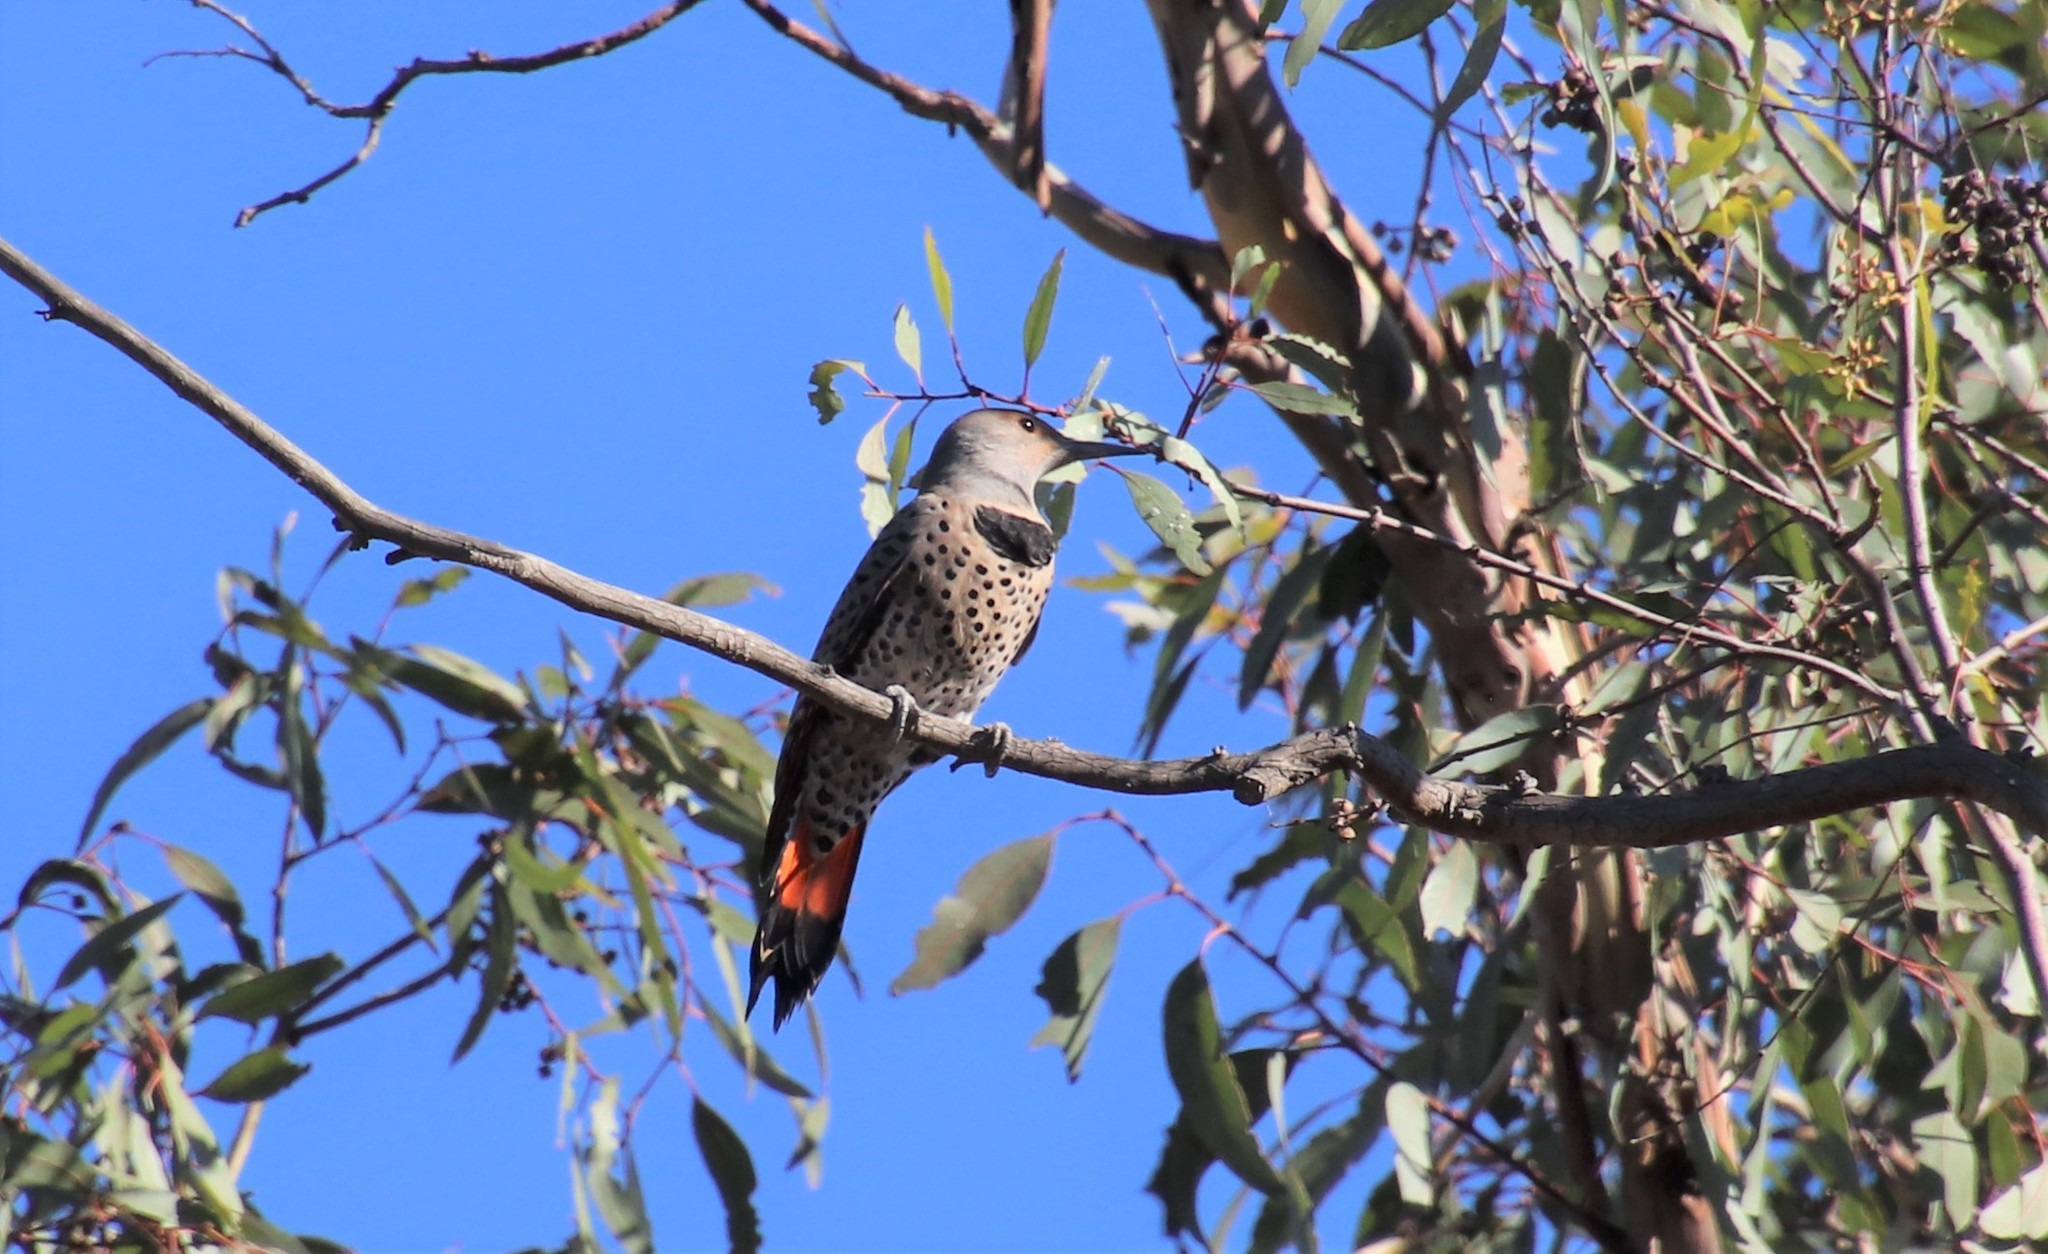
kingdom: Animalia
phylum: Chordata
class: Aves
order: Piciformes
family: Picidae
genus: Colaptes
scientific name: Colaptes auratus
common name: Northern flicker
